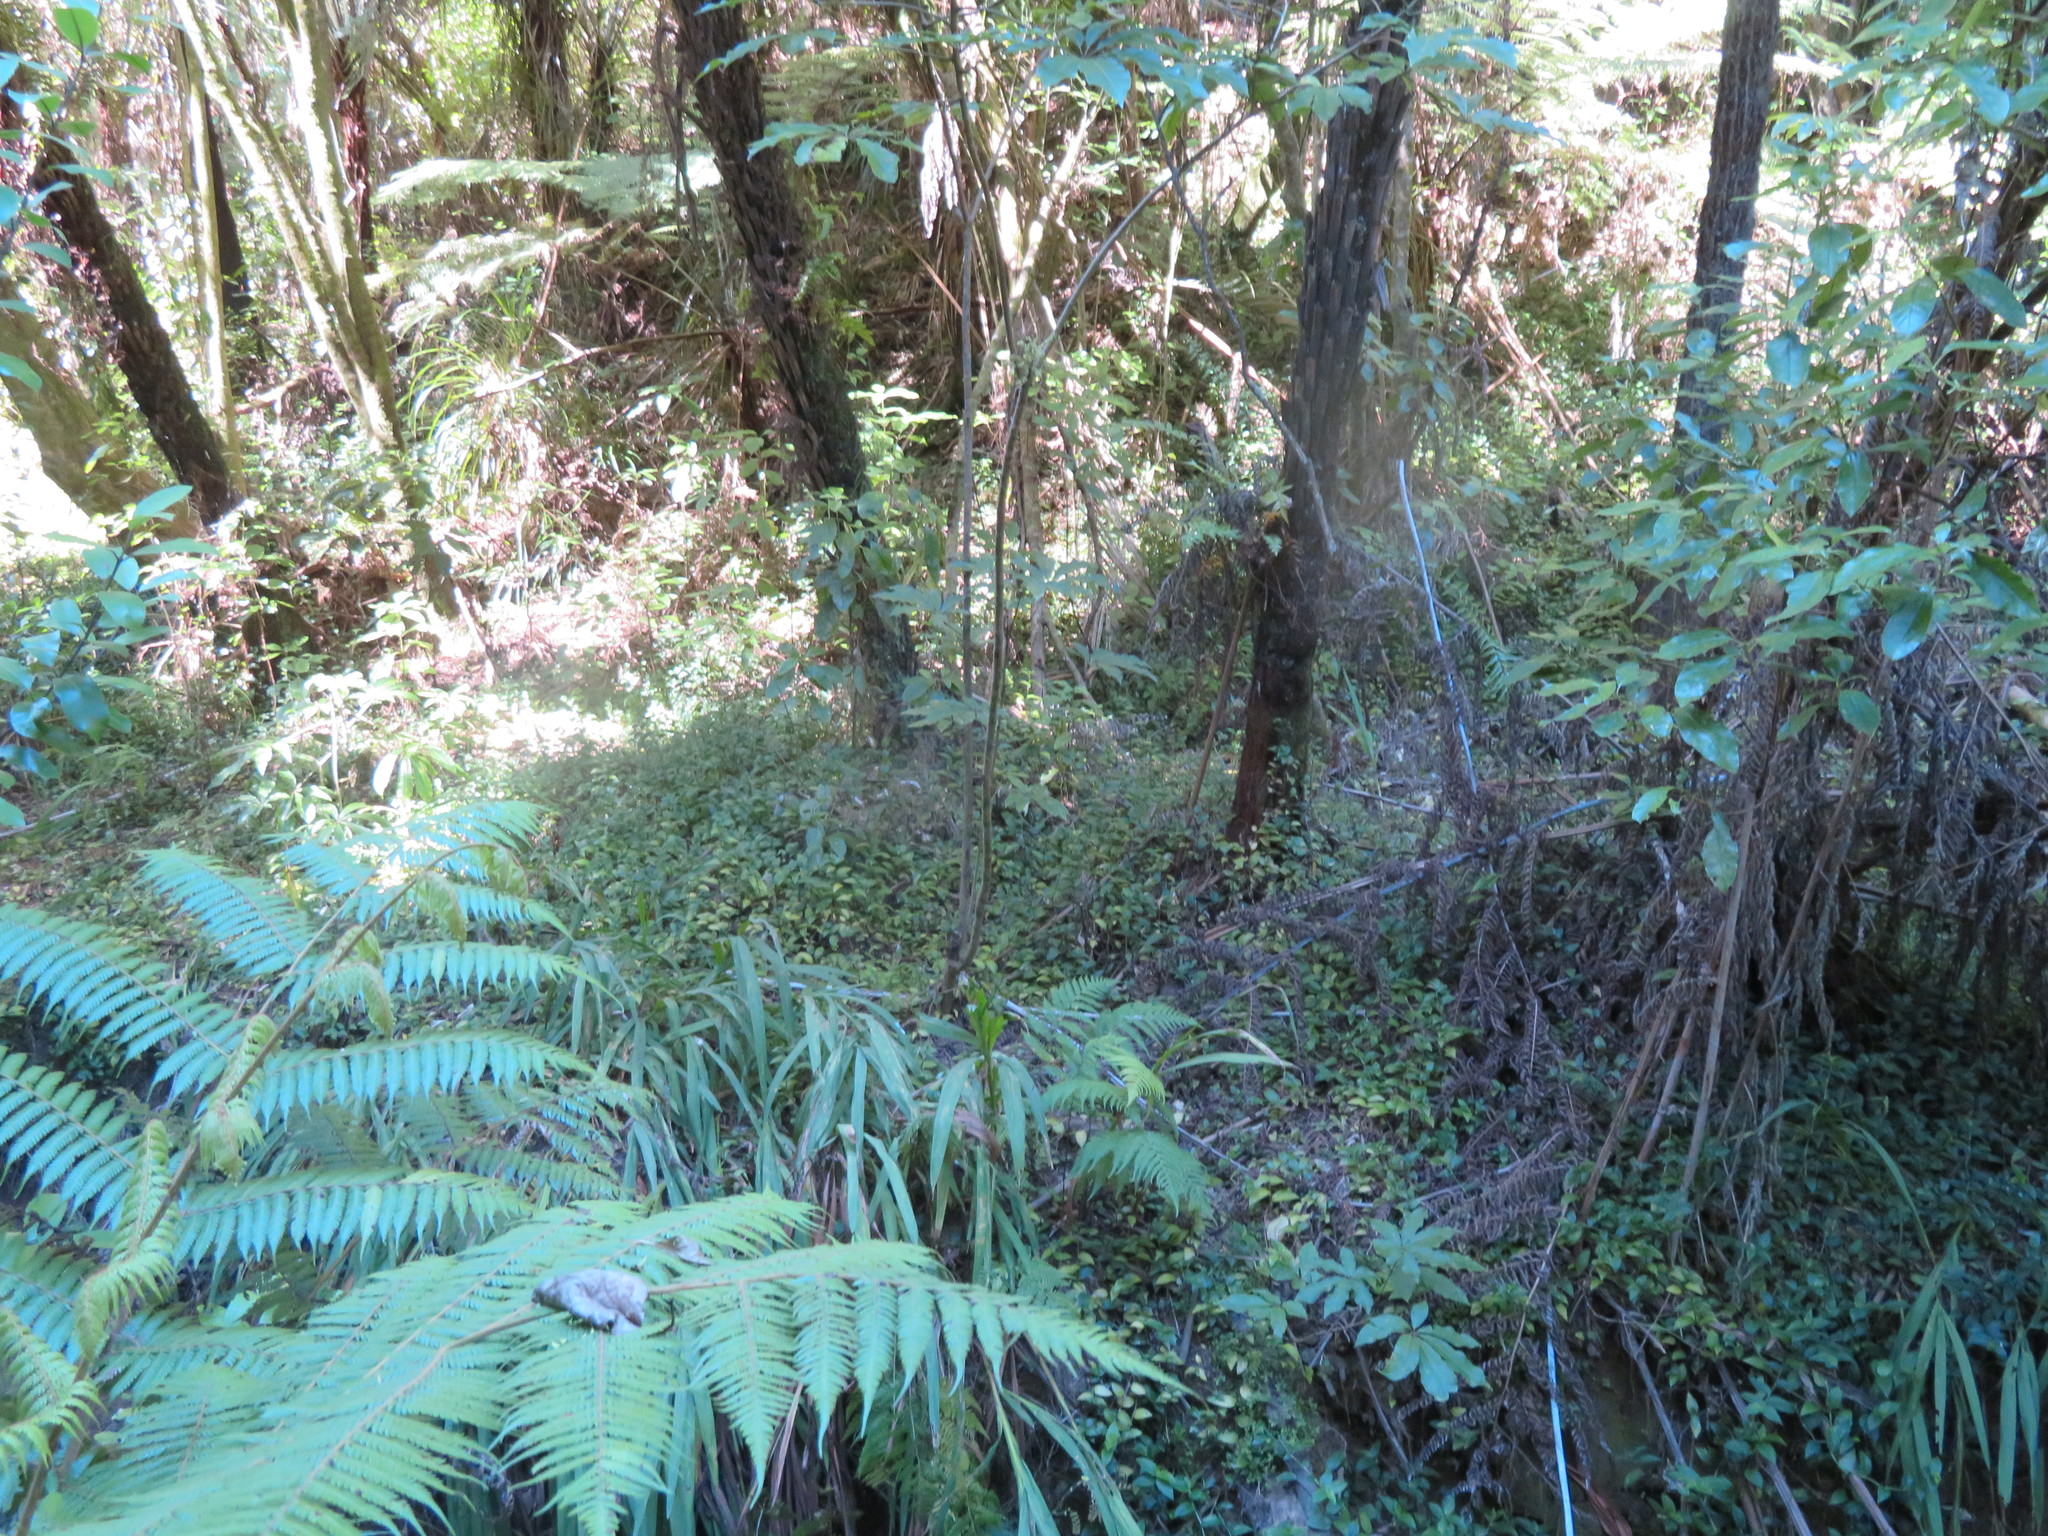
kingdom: Plantae
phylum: Tracheophyta
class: Liliopsida
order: Commelinales
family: Commelinaceae
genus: Tradescantia
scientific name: Tradescantia fluminensis
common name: Wandering-jew
